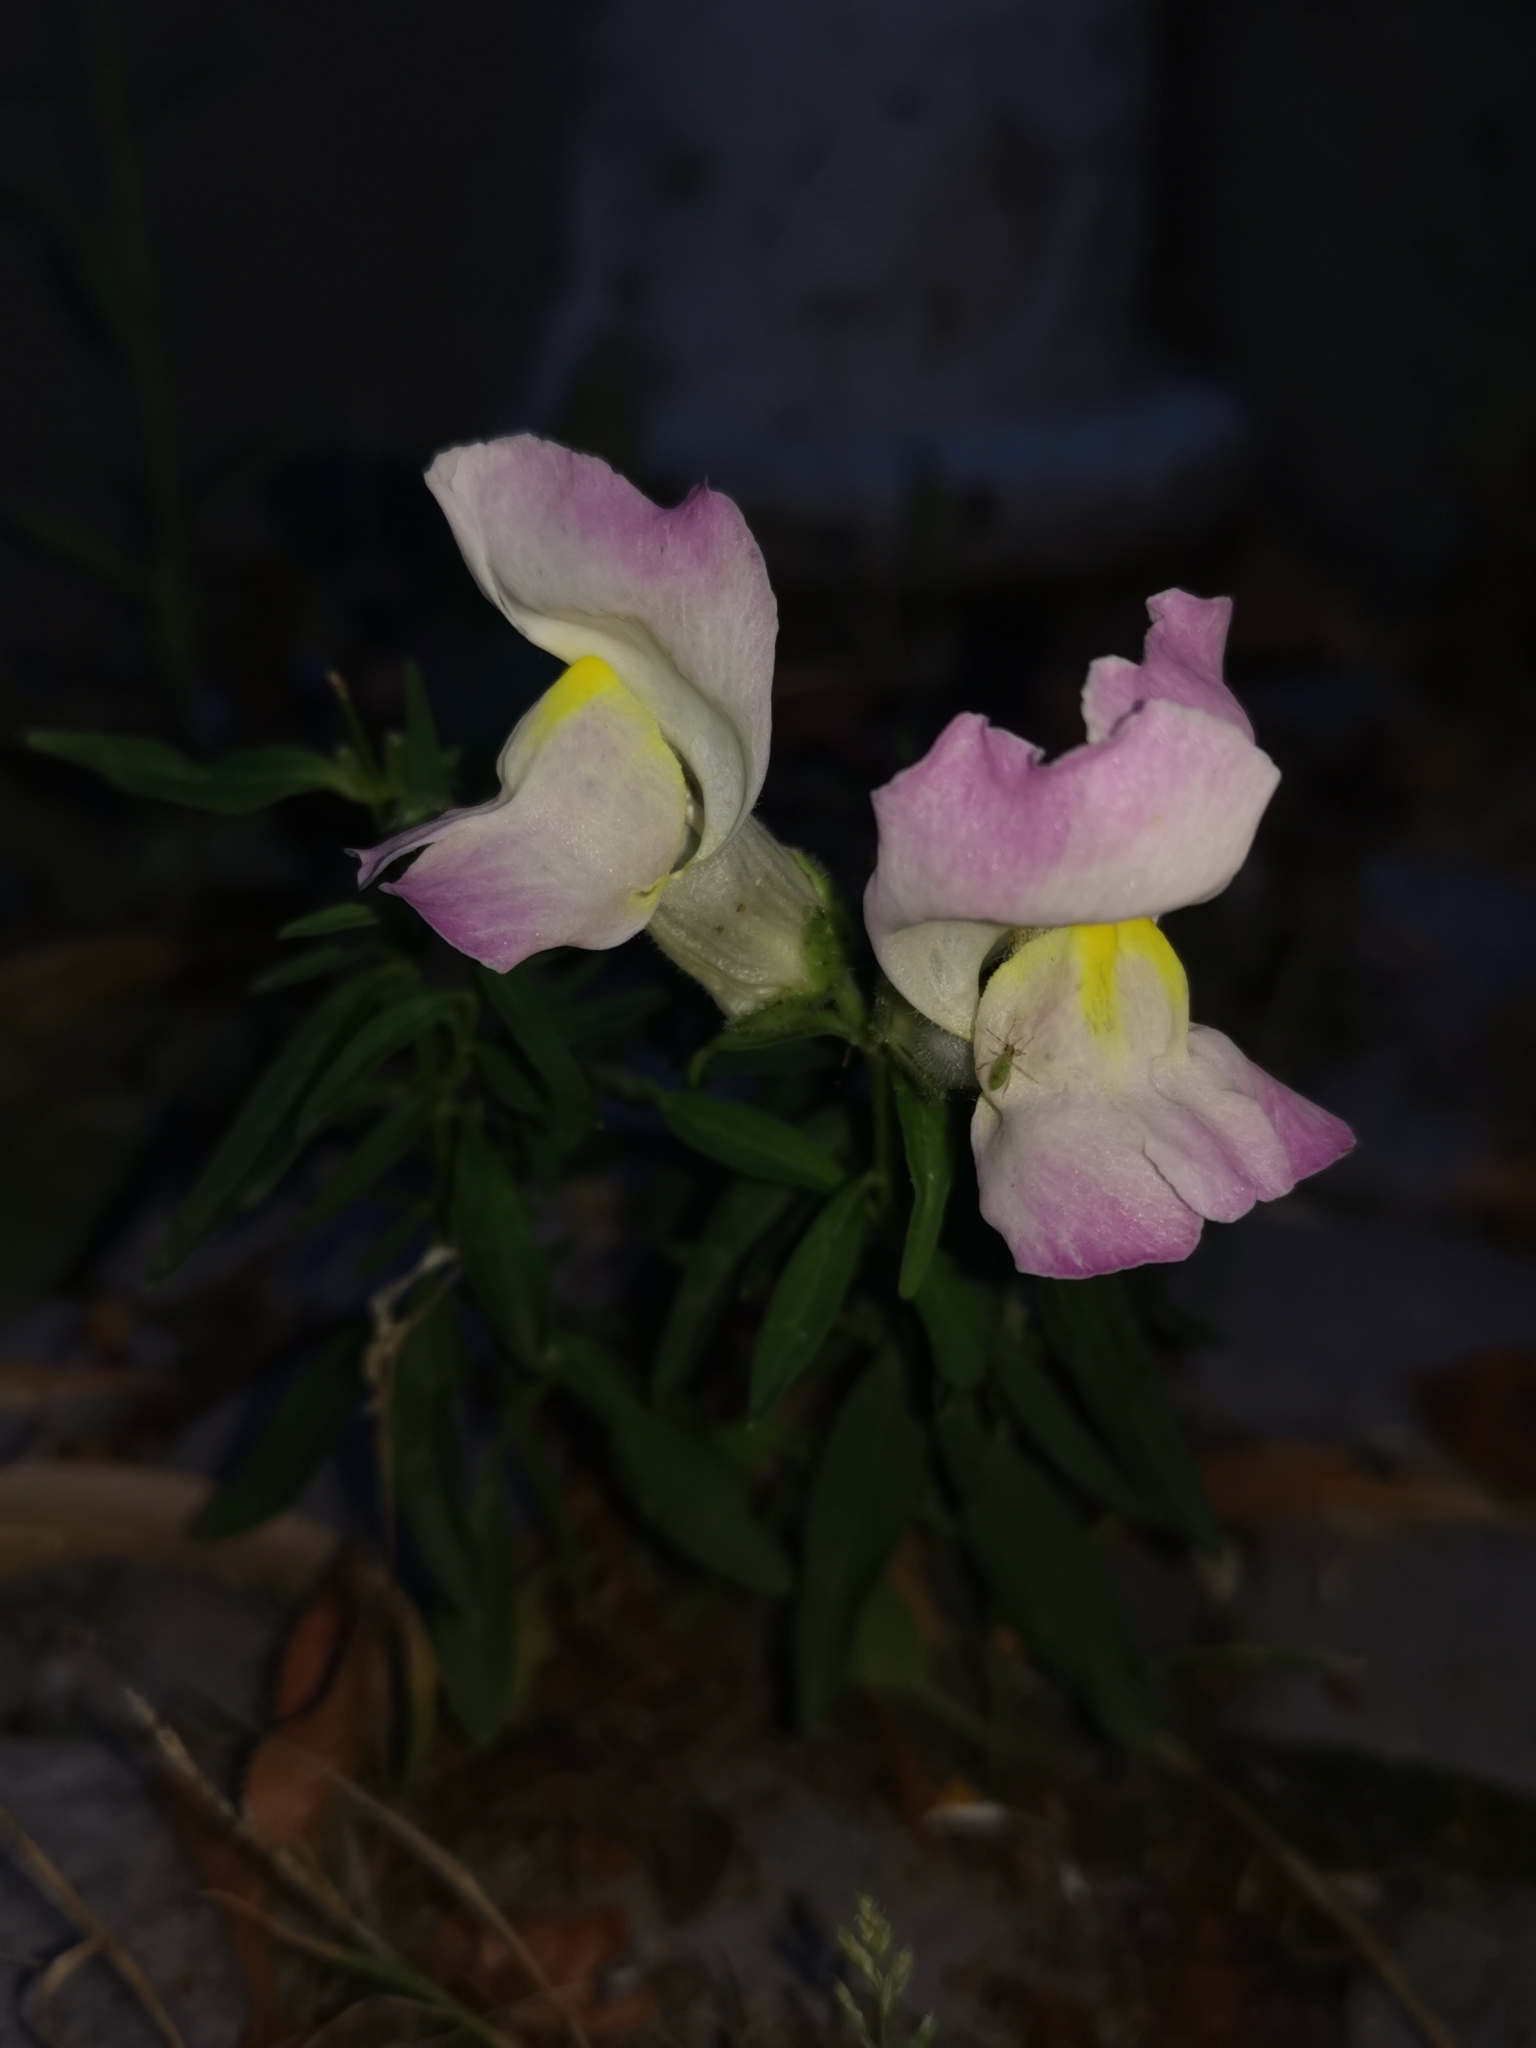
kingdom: Plantae
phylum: Tracheophyta
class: Magnoliopsida
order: Lamiales
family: Plantaginaceae
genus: Antirrhinum
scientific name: Antirrhinum majus
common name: Snapdragon
